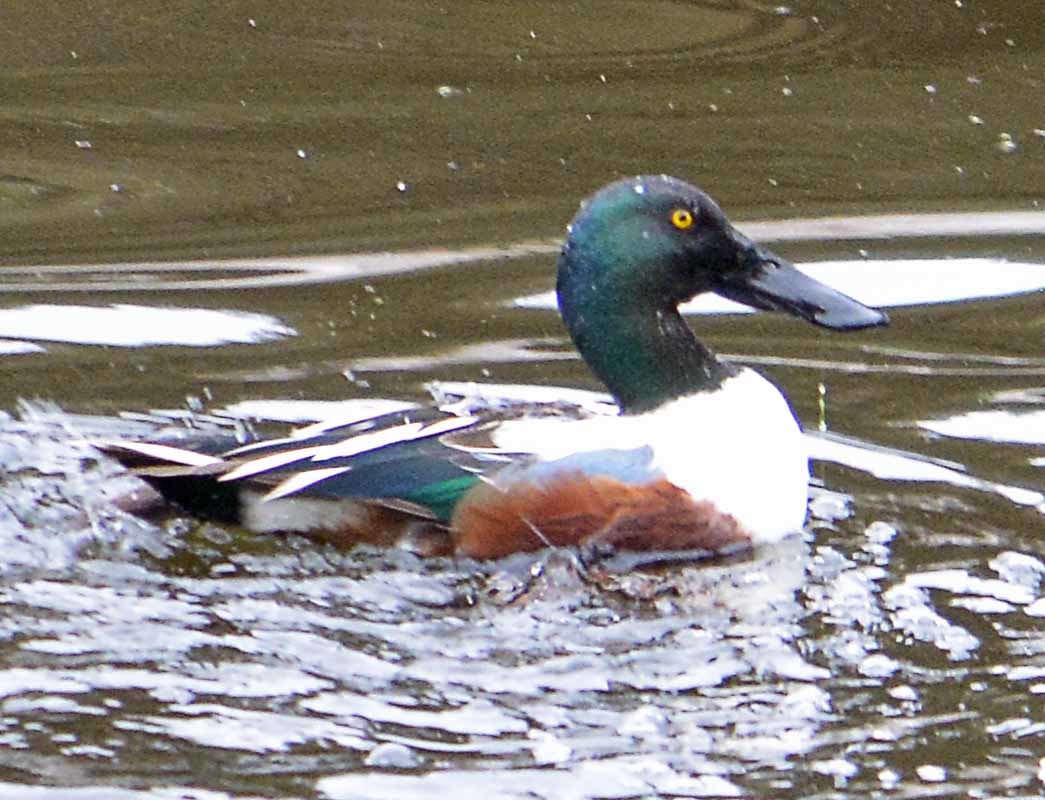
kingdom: Animalia
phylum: Chordata
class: Aves
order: Anseriformes
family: Anatidae
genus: Spatula
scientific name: Spatula clypeata
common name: Northern shoveler
